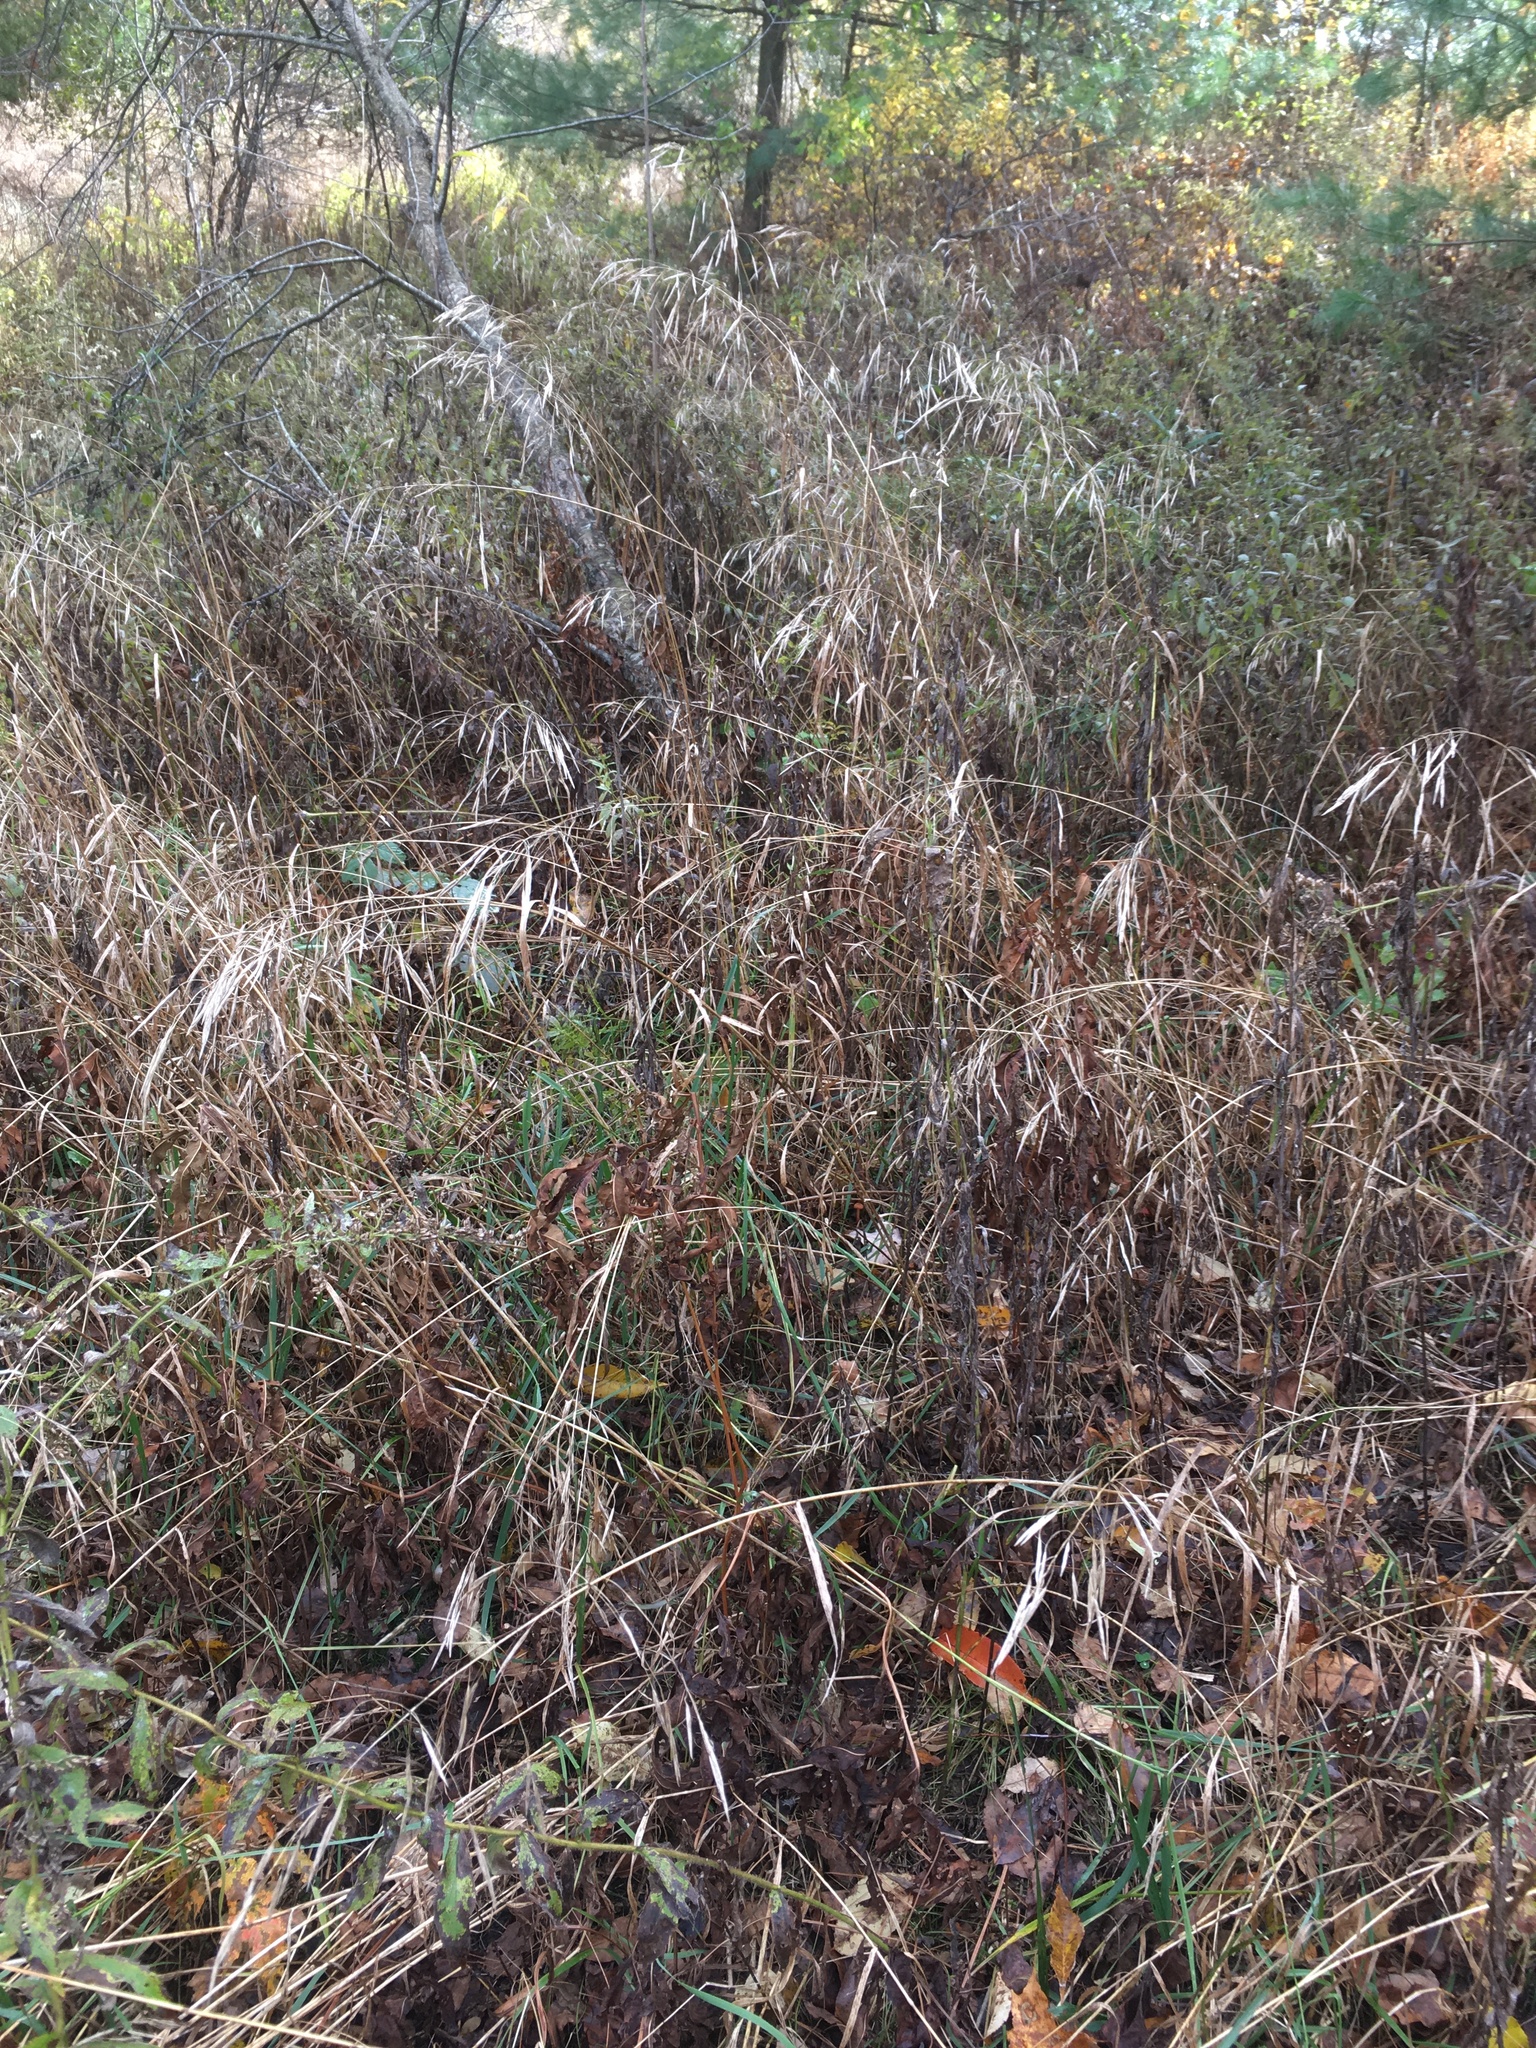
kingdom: Plantae
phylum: Tracheophyta
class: Liliopsida
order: Poales
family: Poaceae
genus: Bromus
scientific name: Bromus inermis
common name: Smooth brome
